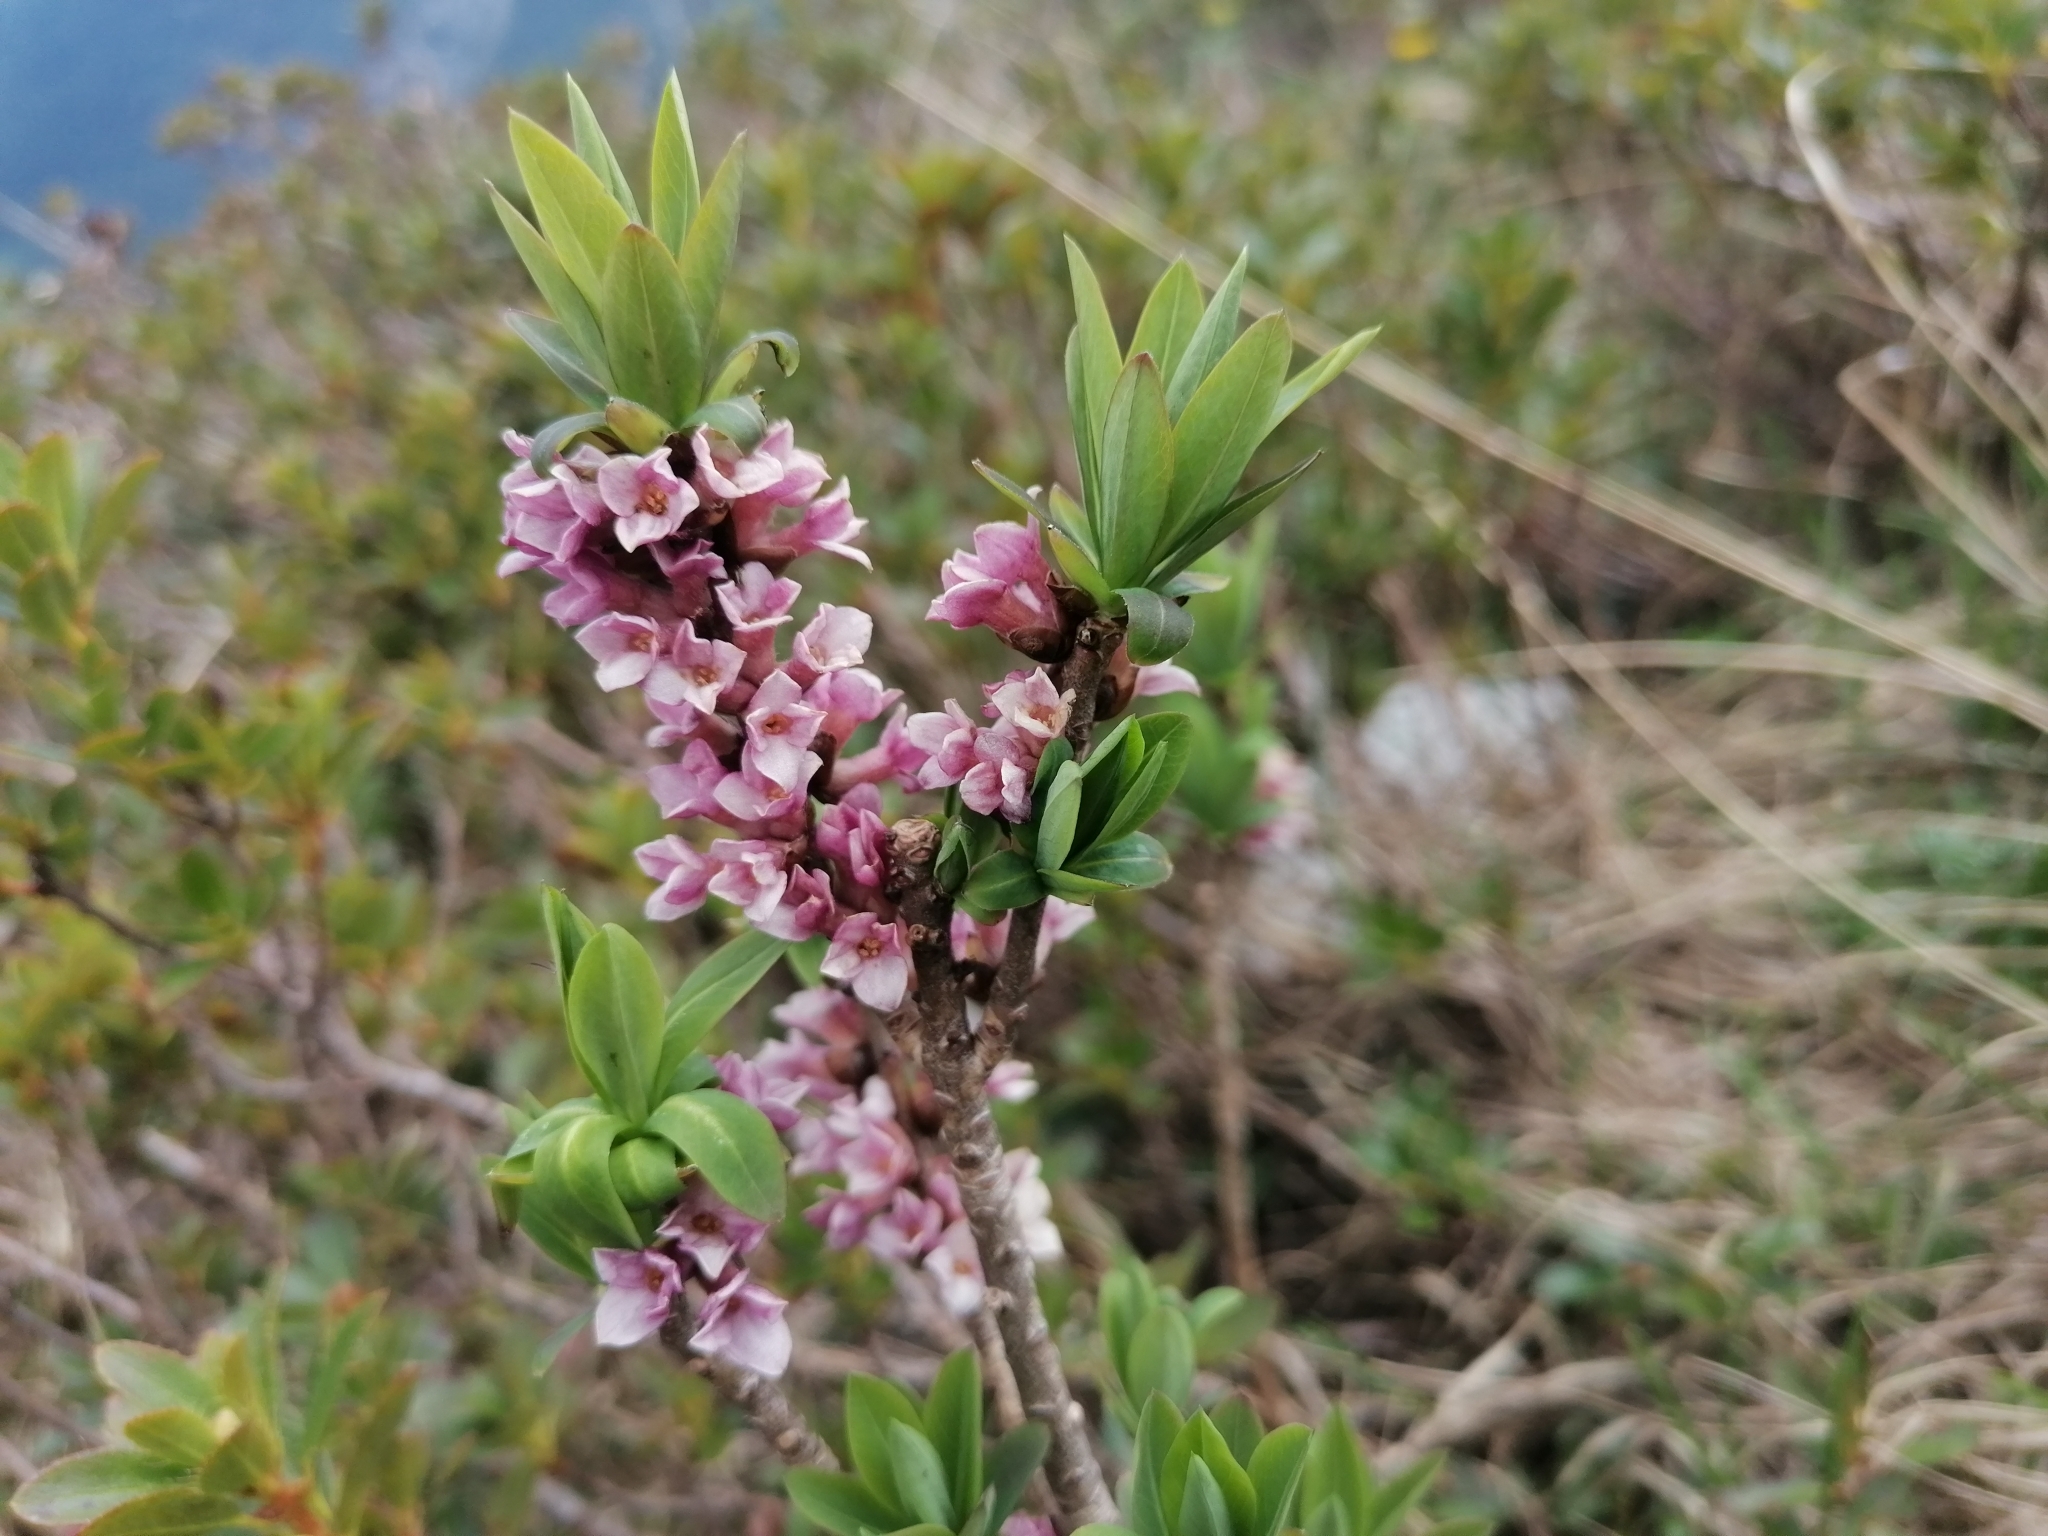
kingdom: Plantae
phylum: Tracheophyta
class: Magnoliopsida
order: Malvales
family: Thymelaeaceae
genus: Daphne
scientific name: Daphne mezereum
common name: Mezereon
